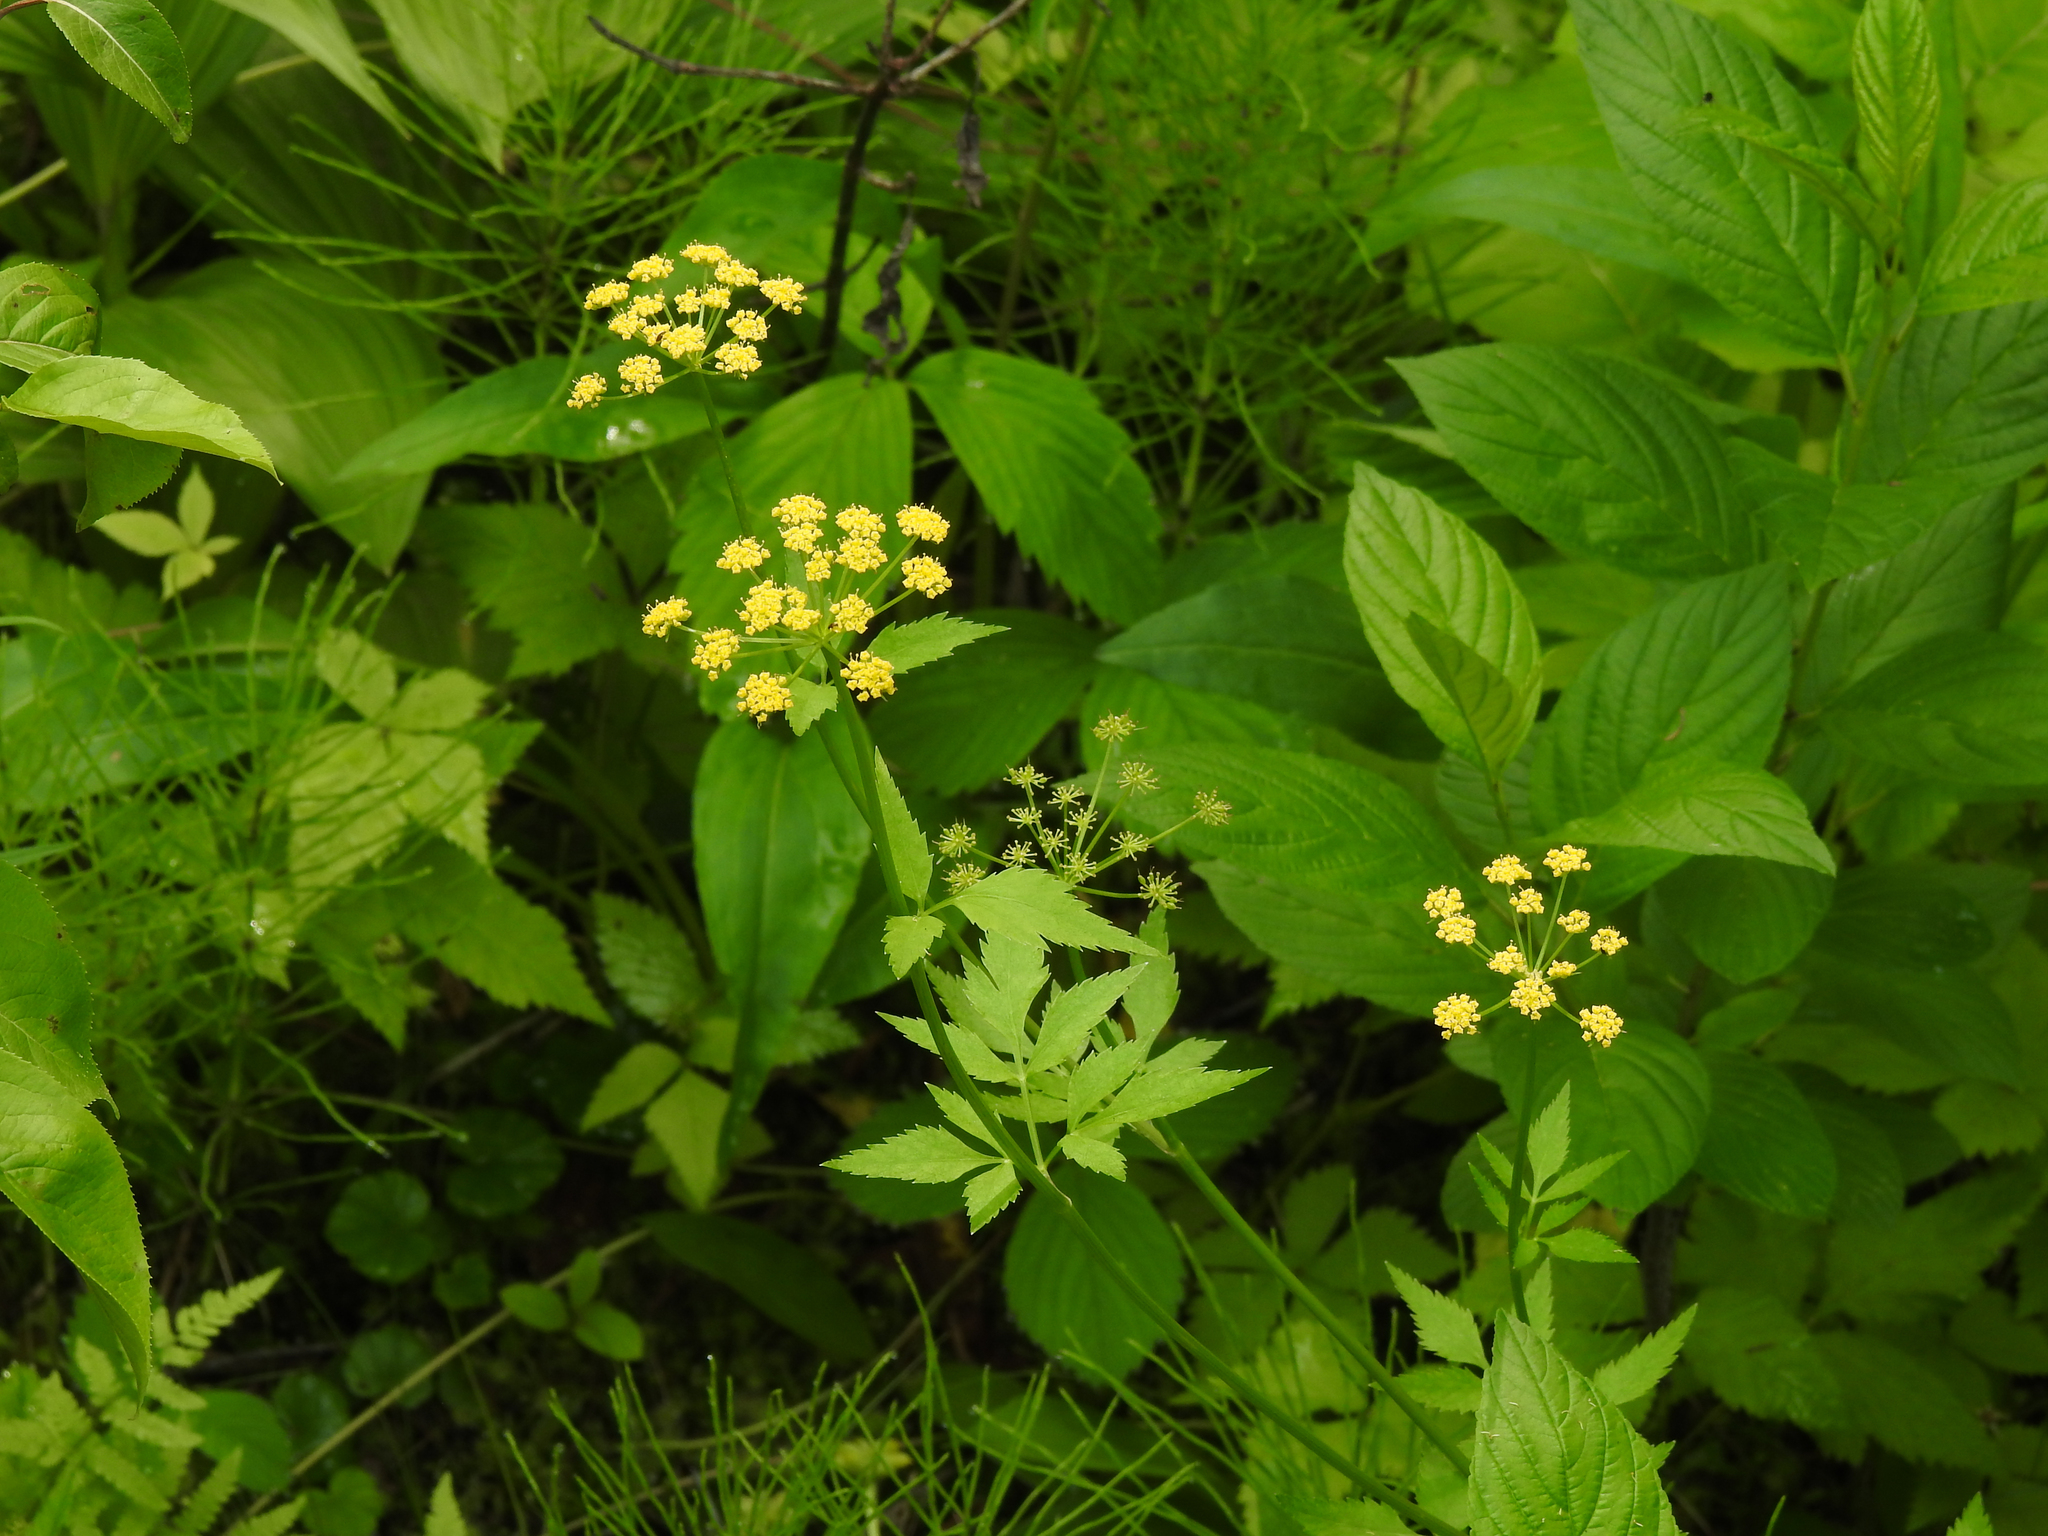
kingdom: Plantae
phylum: Tracheophyta
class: Magnoliopsida
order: Apiales
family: Apiaceae
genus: Zizia
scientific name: Zizia aurea
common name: Golden alexanders
